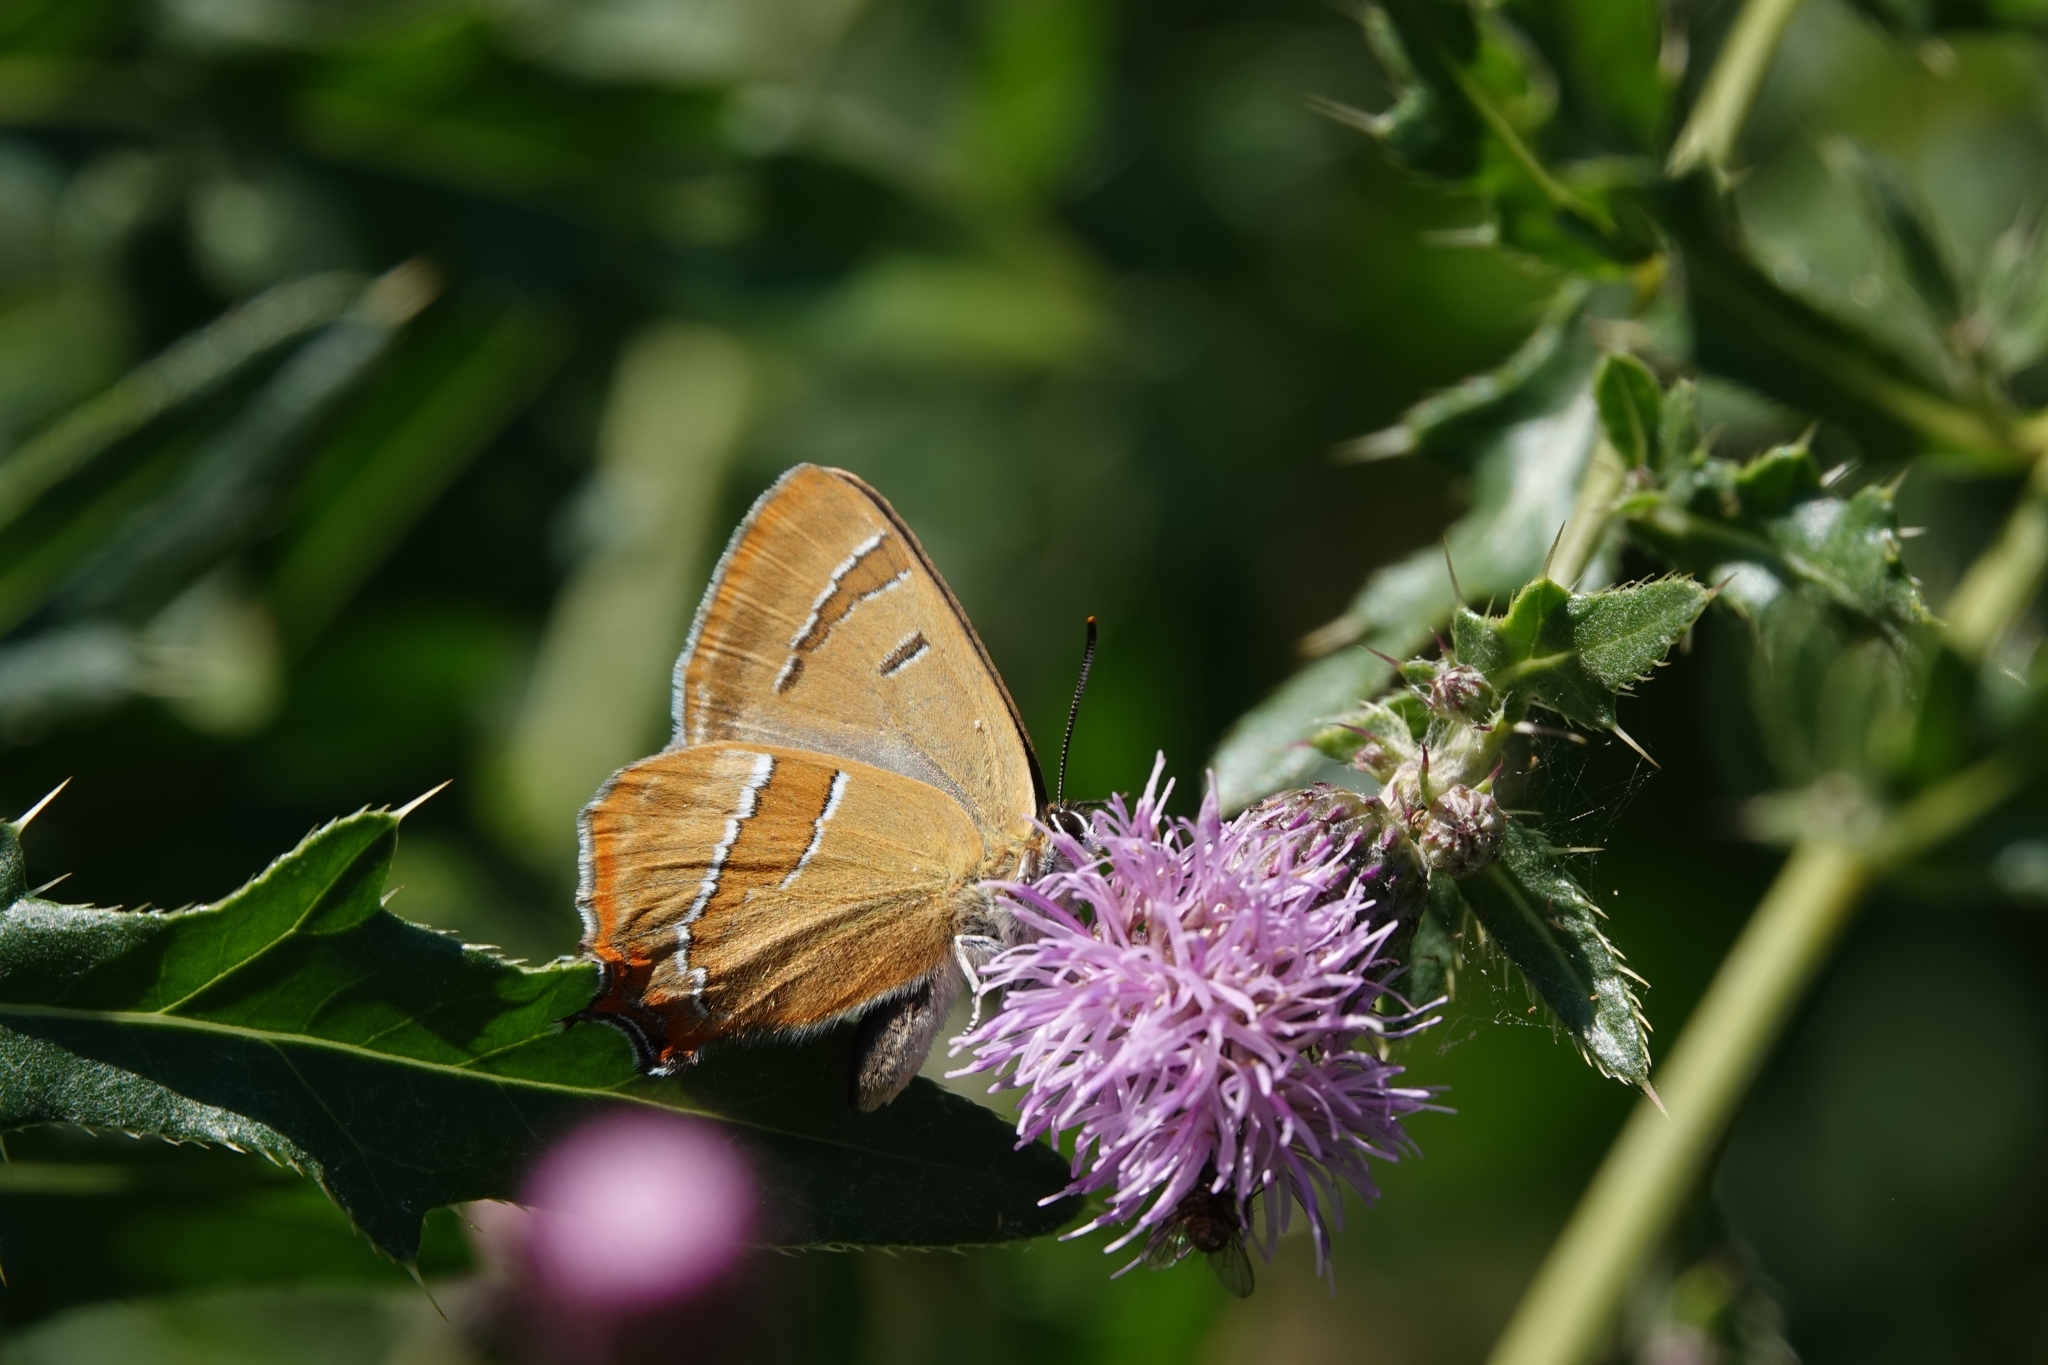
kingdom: Animalia
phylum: Arthropoda
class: Insecta
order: Lepidoptera
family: Lycaenidae
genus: Thecla
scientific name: Thecla betulae
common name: Brown hairstreak
